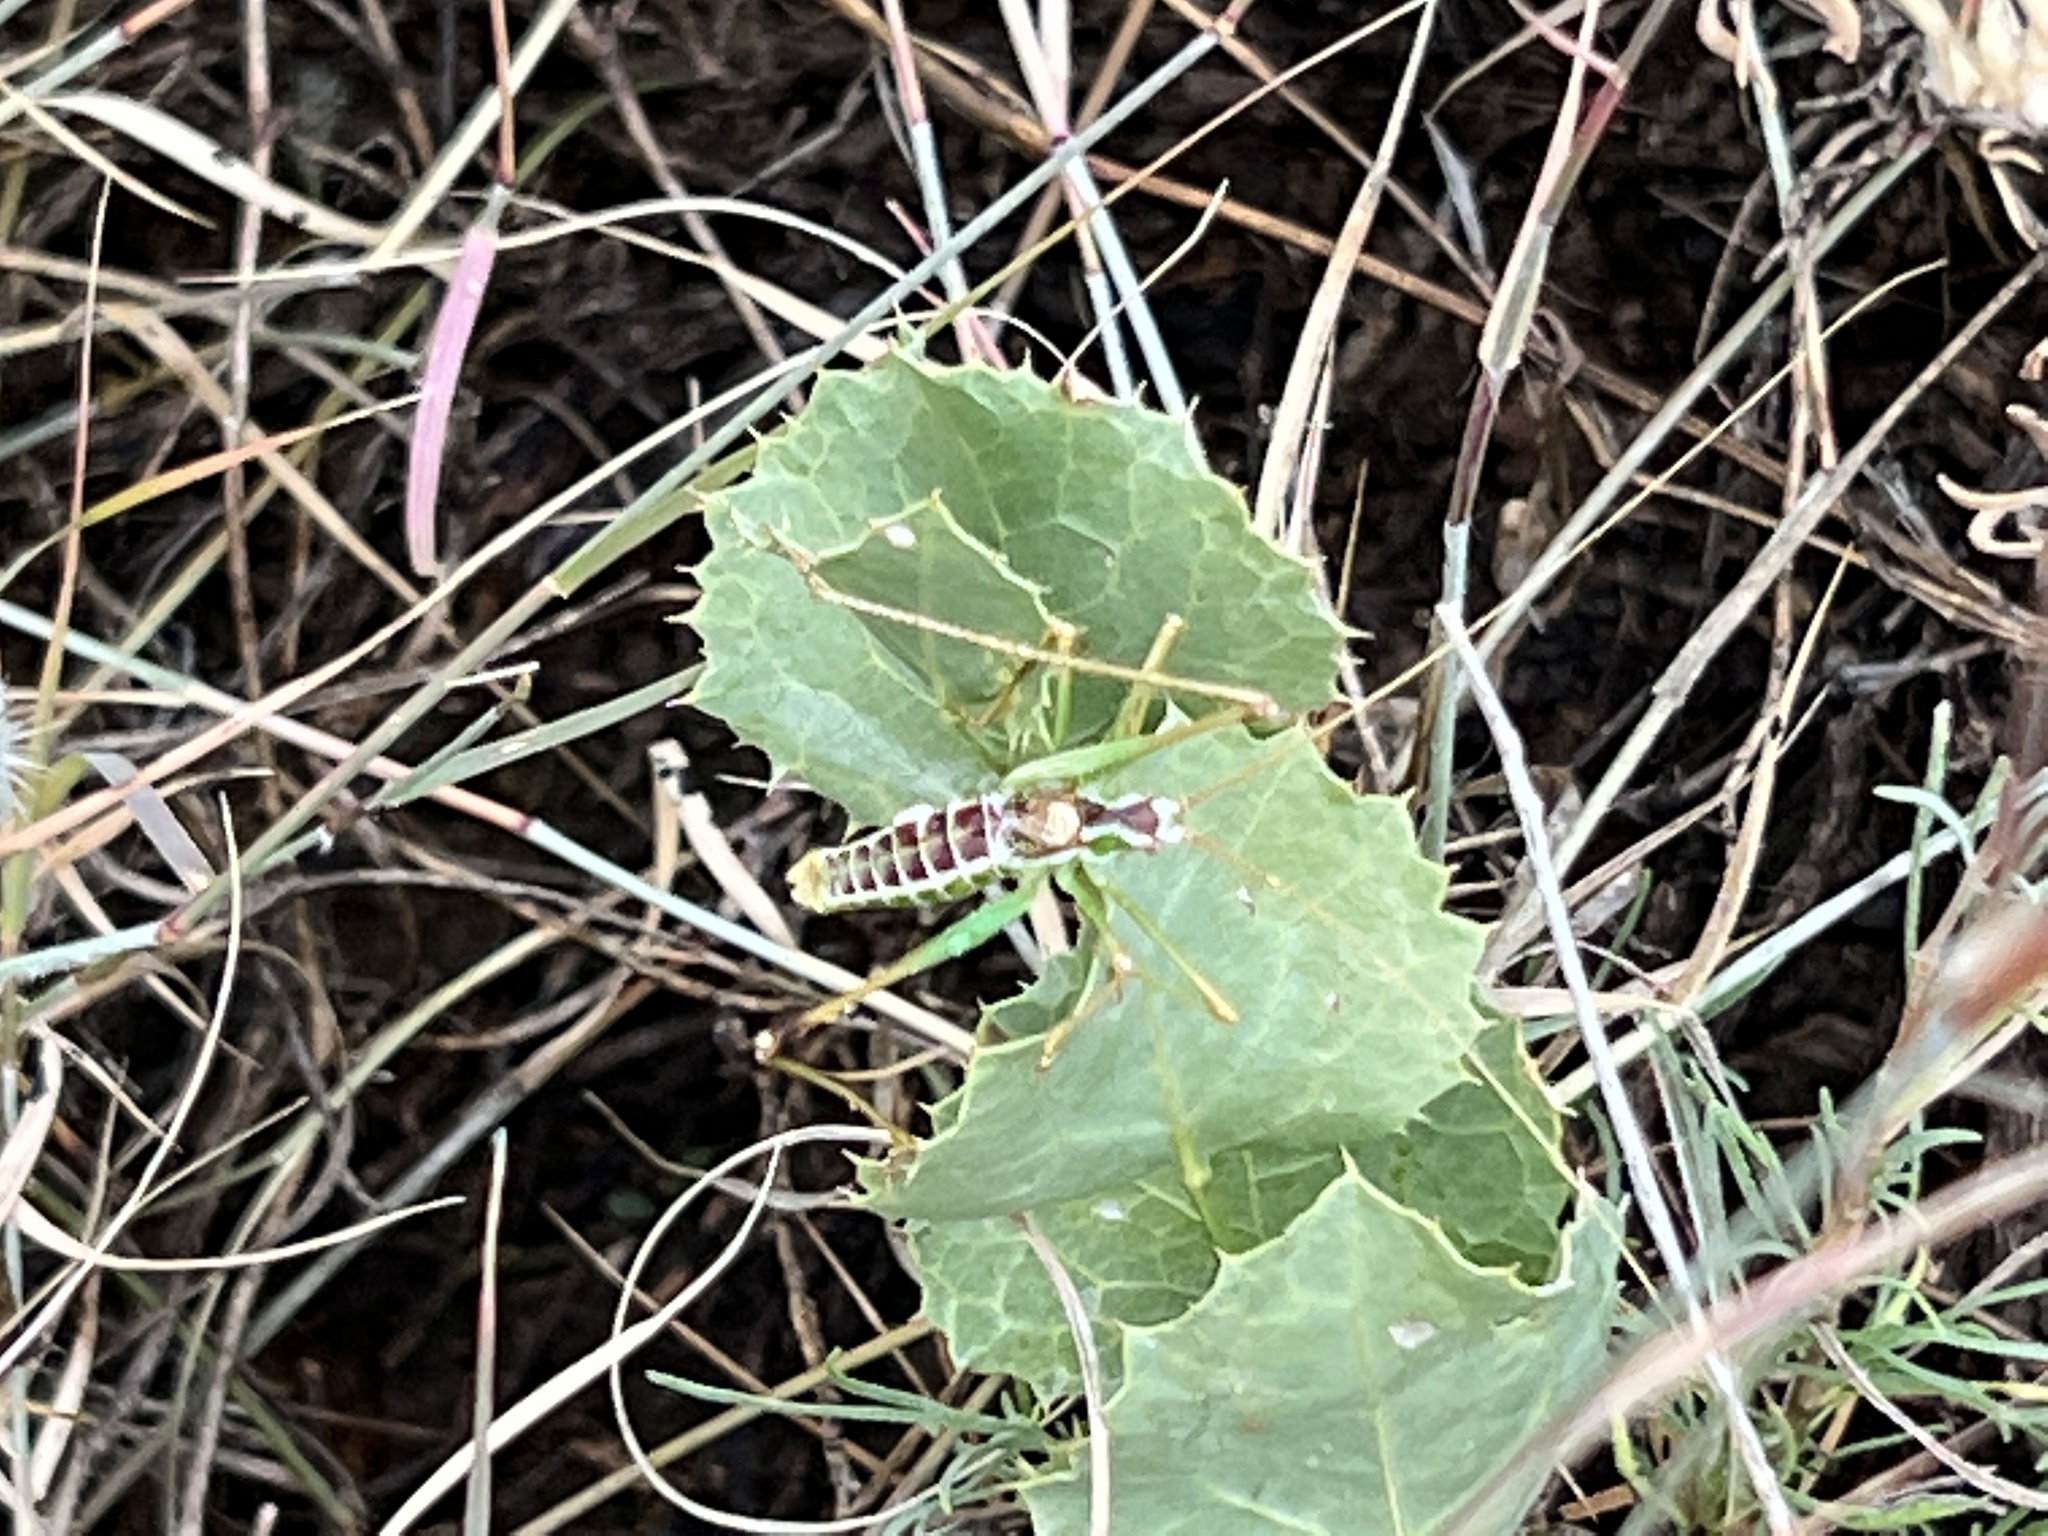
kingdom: Animalia
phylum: Arthropoda
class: Insecta
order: Orthoptera
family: Tettigoniidae
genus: Obolopteryx
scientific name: Obolopteryx brevihastata
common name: Common short-winged katydid
